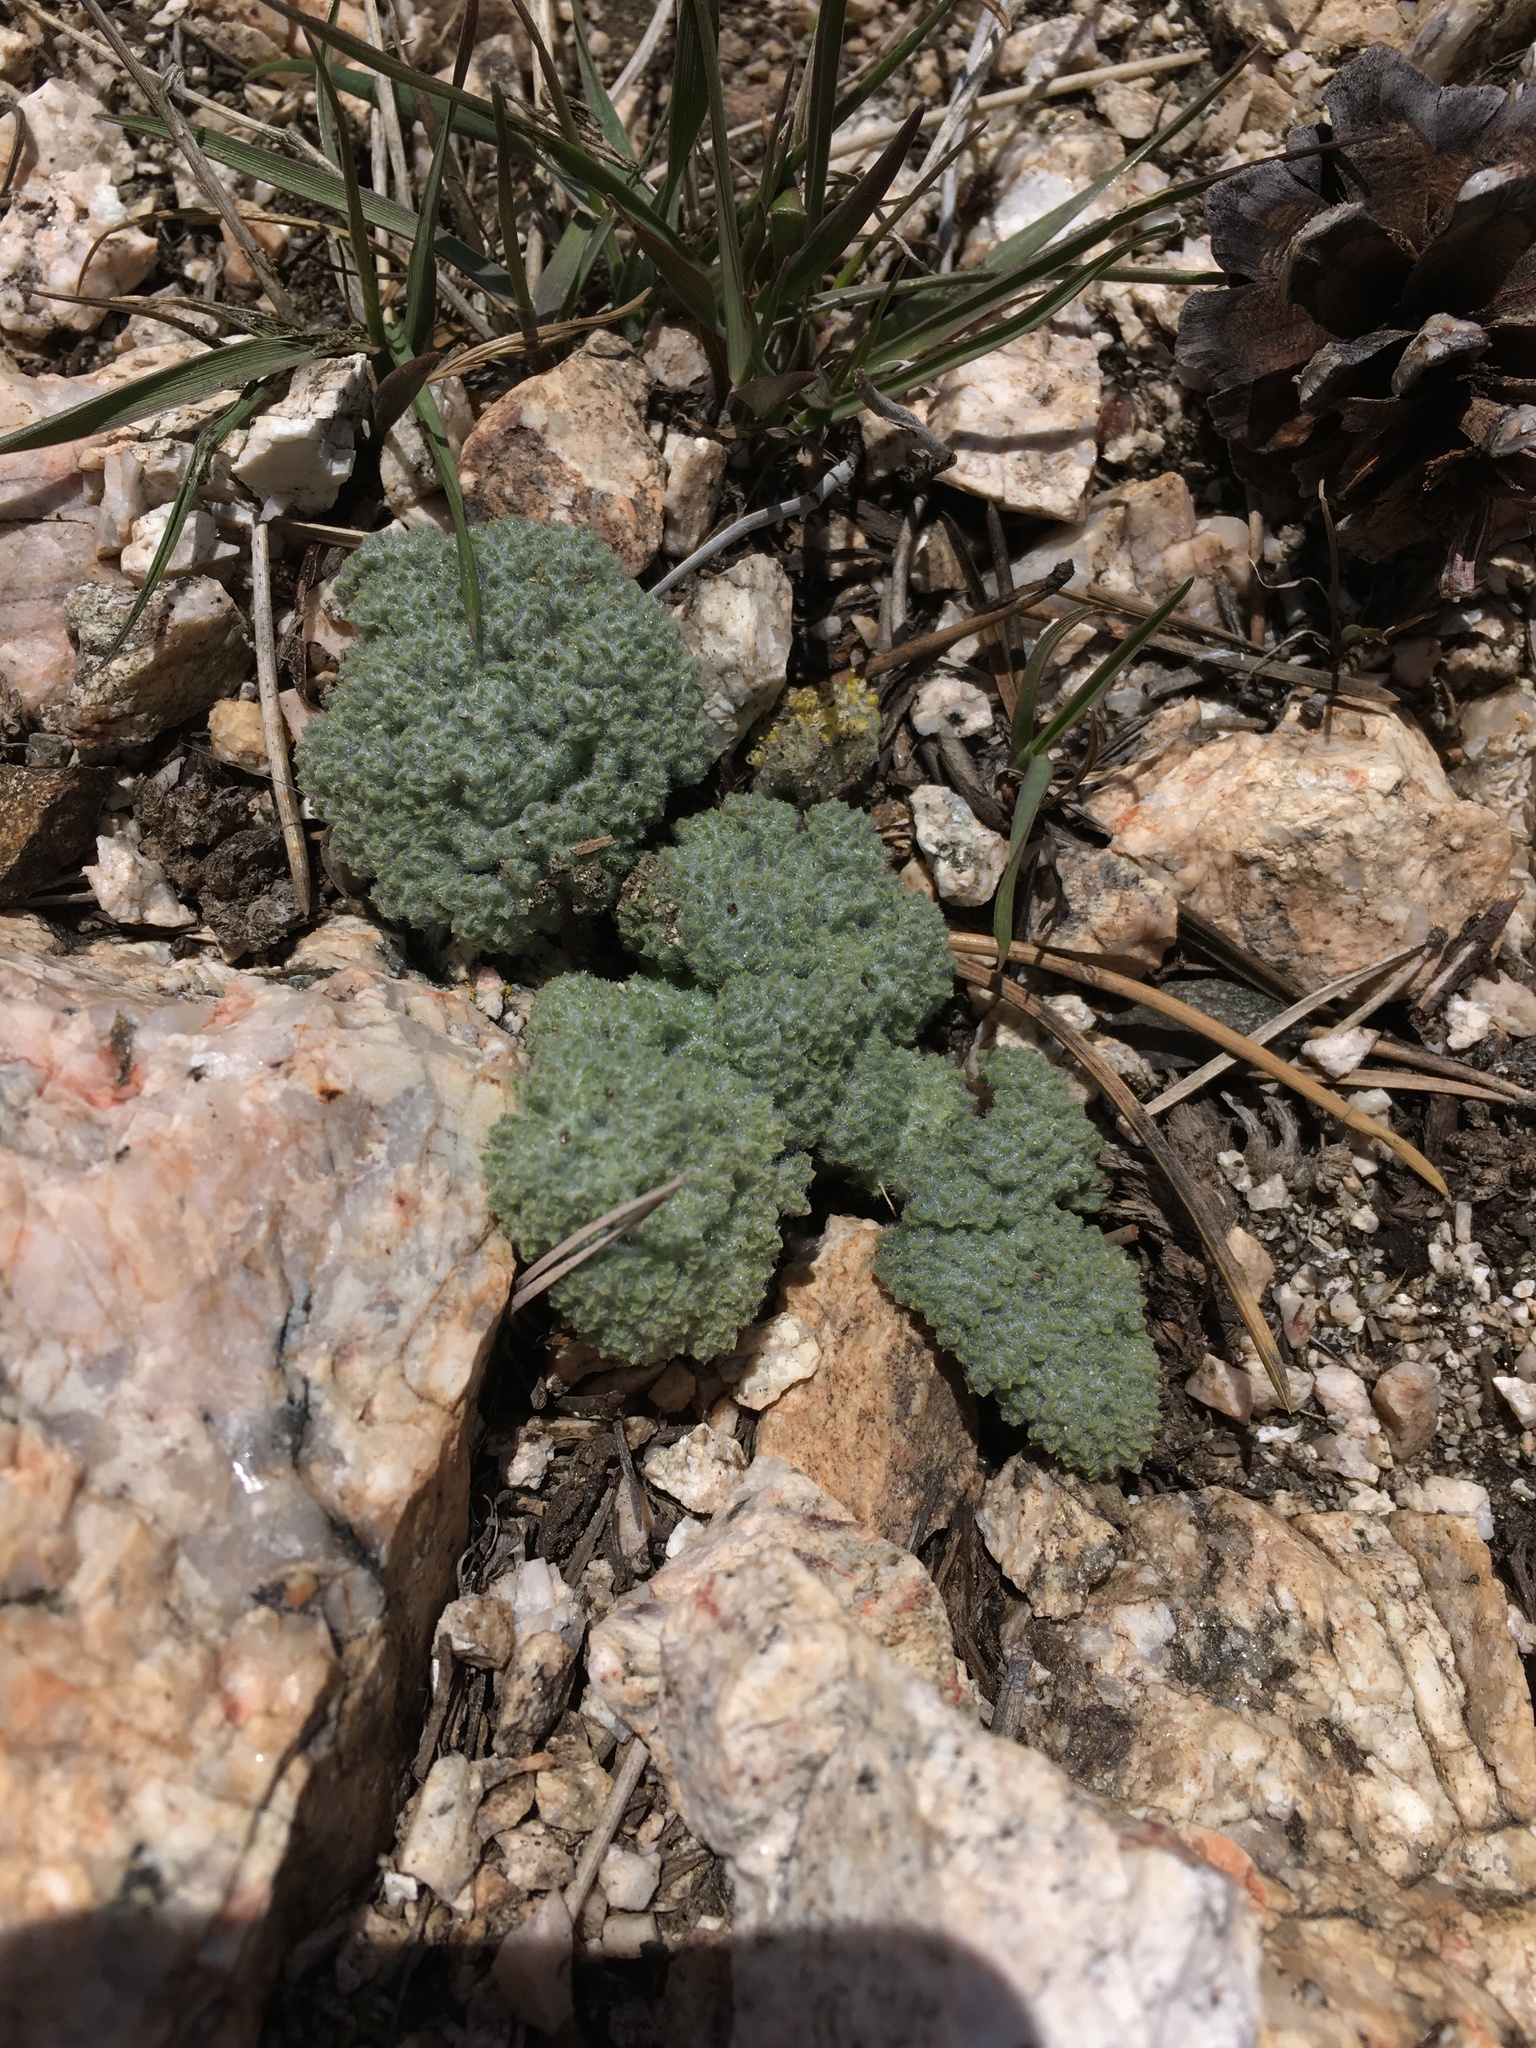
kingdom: Plantae
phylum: Tracheophyta
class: Magnoliopsida
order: Apiales
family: Apiaceae
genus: Oreonana
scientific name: Oreonana vestita
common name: Woolly mountain-parsley
